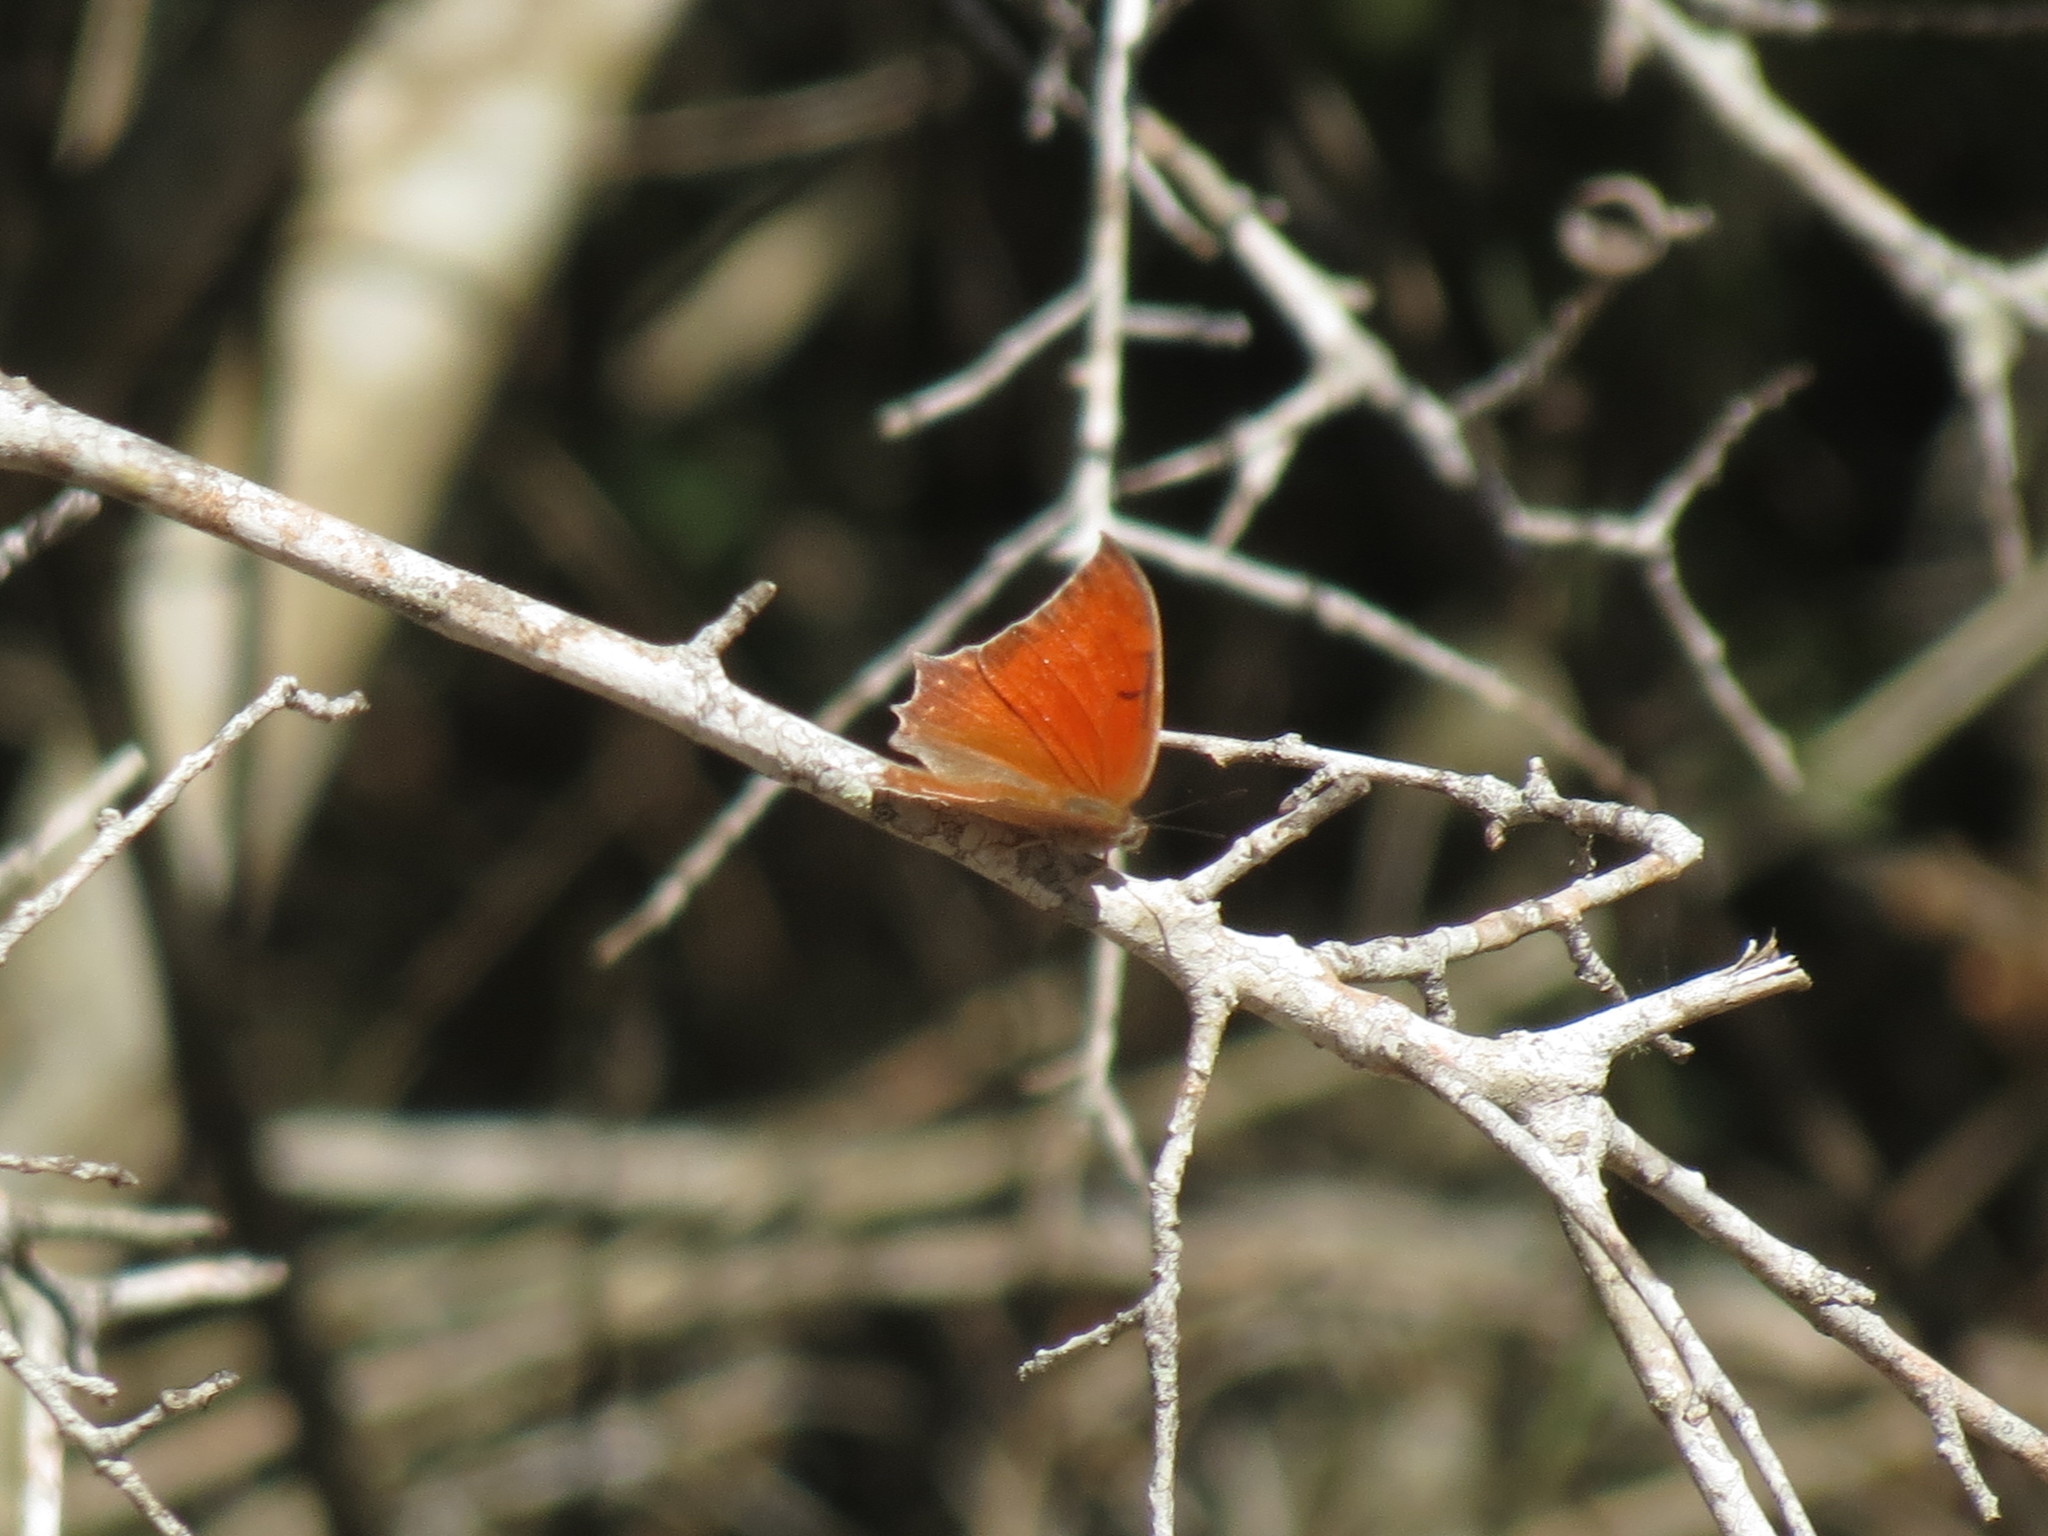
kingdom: Animalia
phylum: Arthropoda
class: Insecta
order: Lepidoptera
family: Nymphalidae
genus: Anaea
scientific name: Anaea aidea
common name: Tropical leafwing
